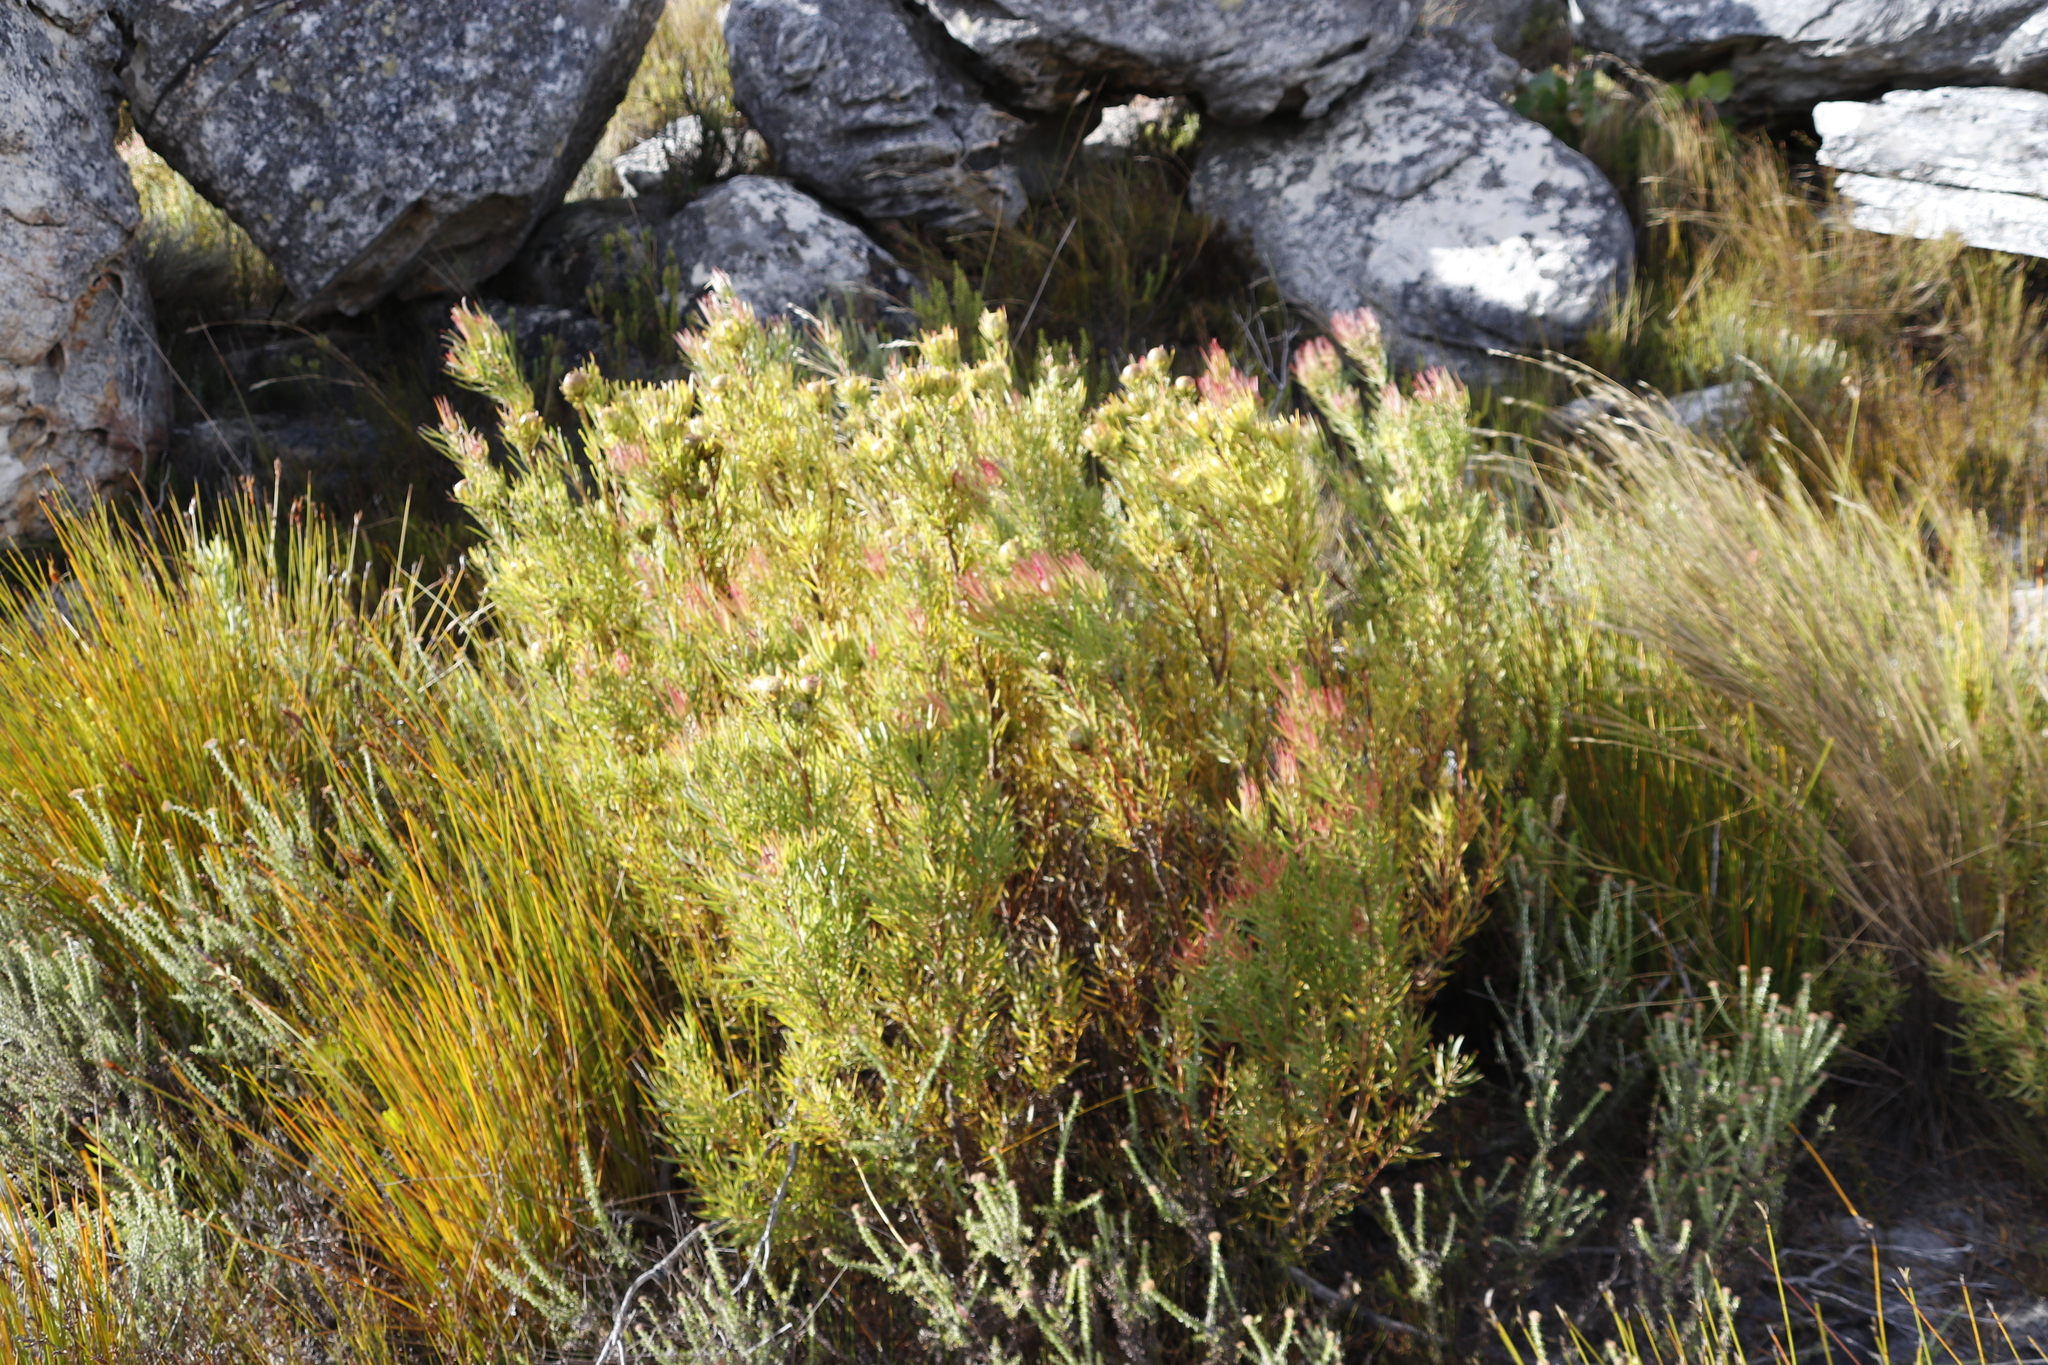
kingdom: Plantae
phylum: Tracheophyta
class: Magnoliopsida
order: Proteales
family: Proteaceae
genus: Leucadendron
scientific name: Leucadendron spissifolium
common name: Spear-leaf conebush
